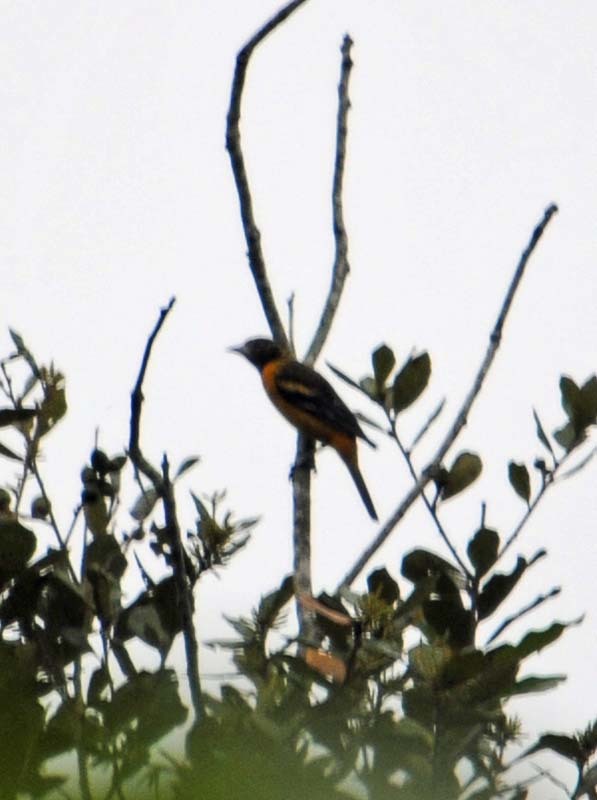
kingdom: Animalia
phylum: Chordata
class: Aves
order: Passeriformes
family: Icteridae
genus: Icterus
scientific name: Icterus galbula
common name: Baltimore oriole
